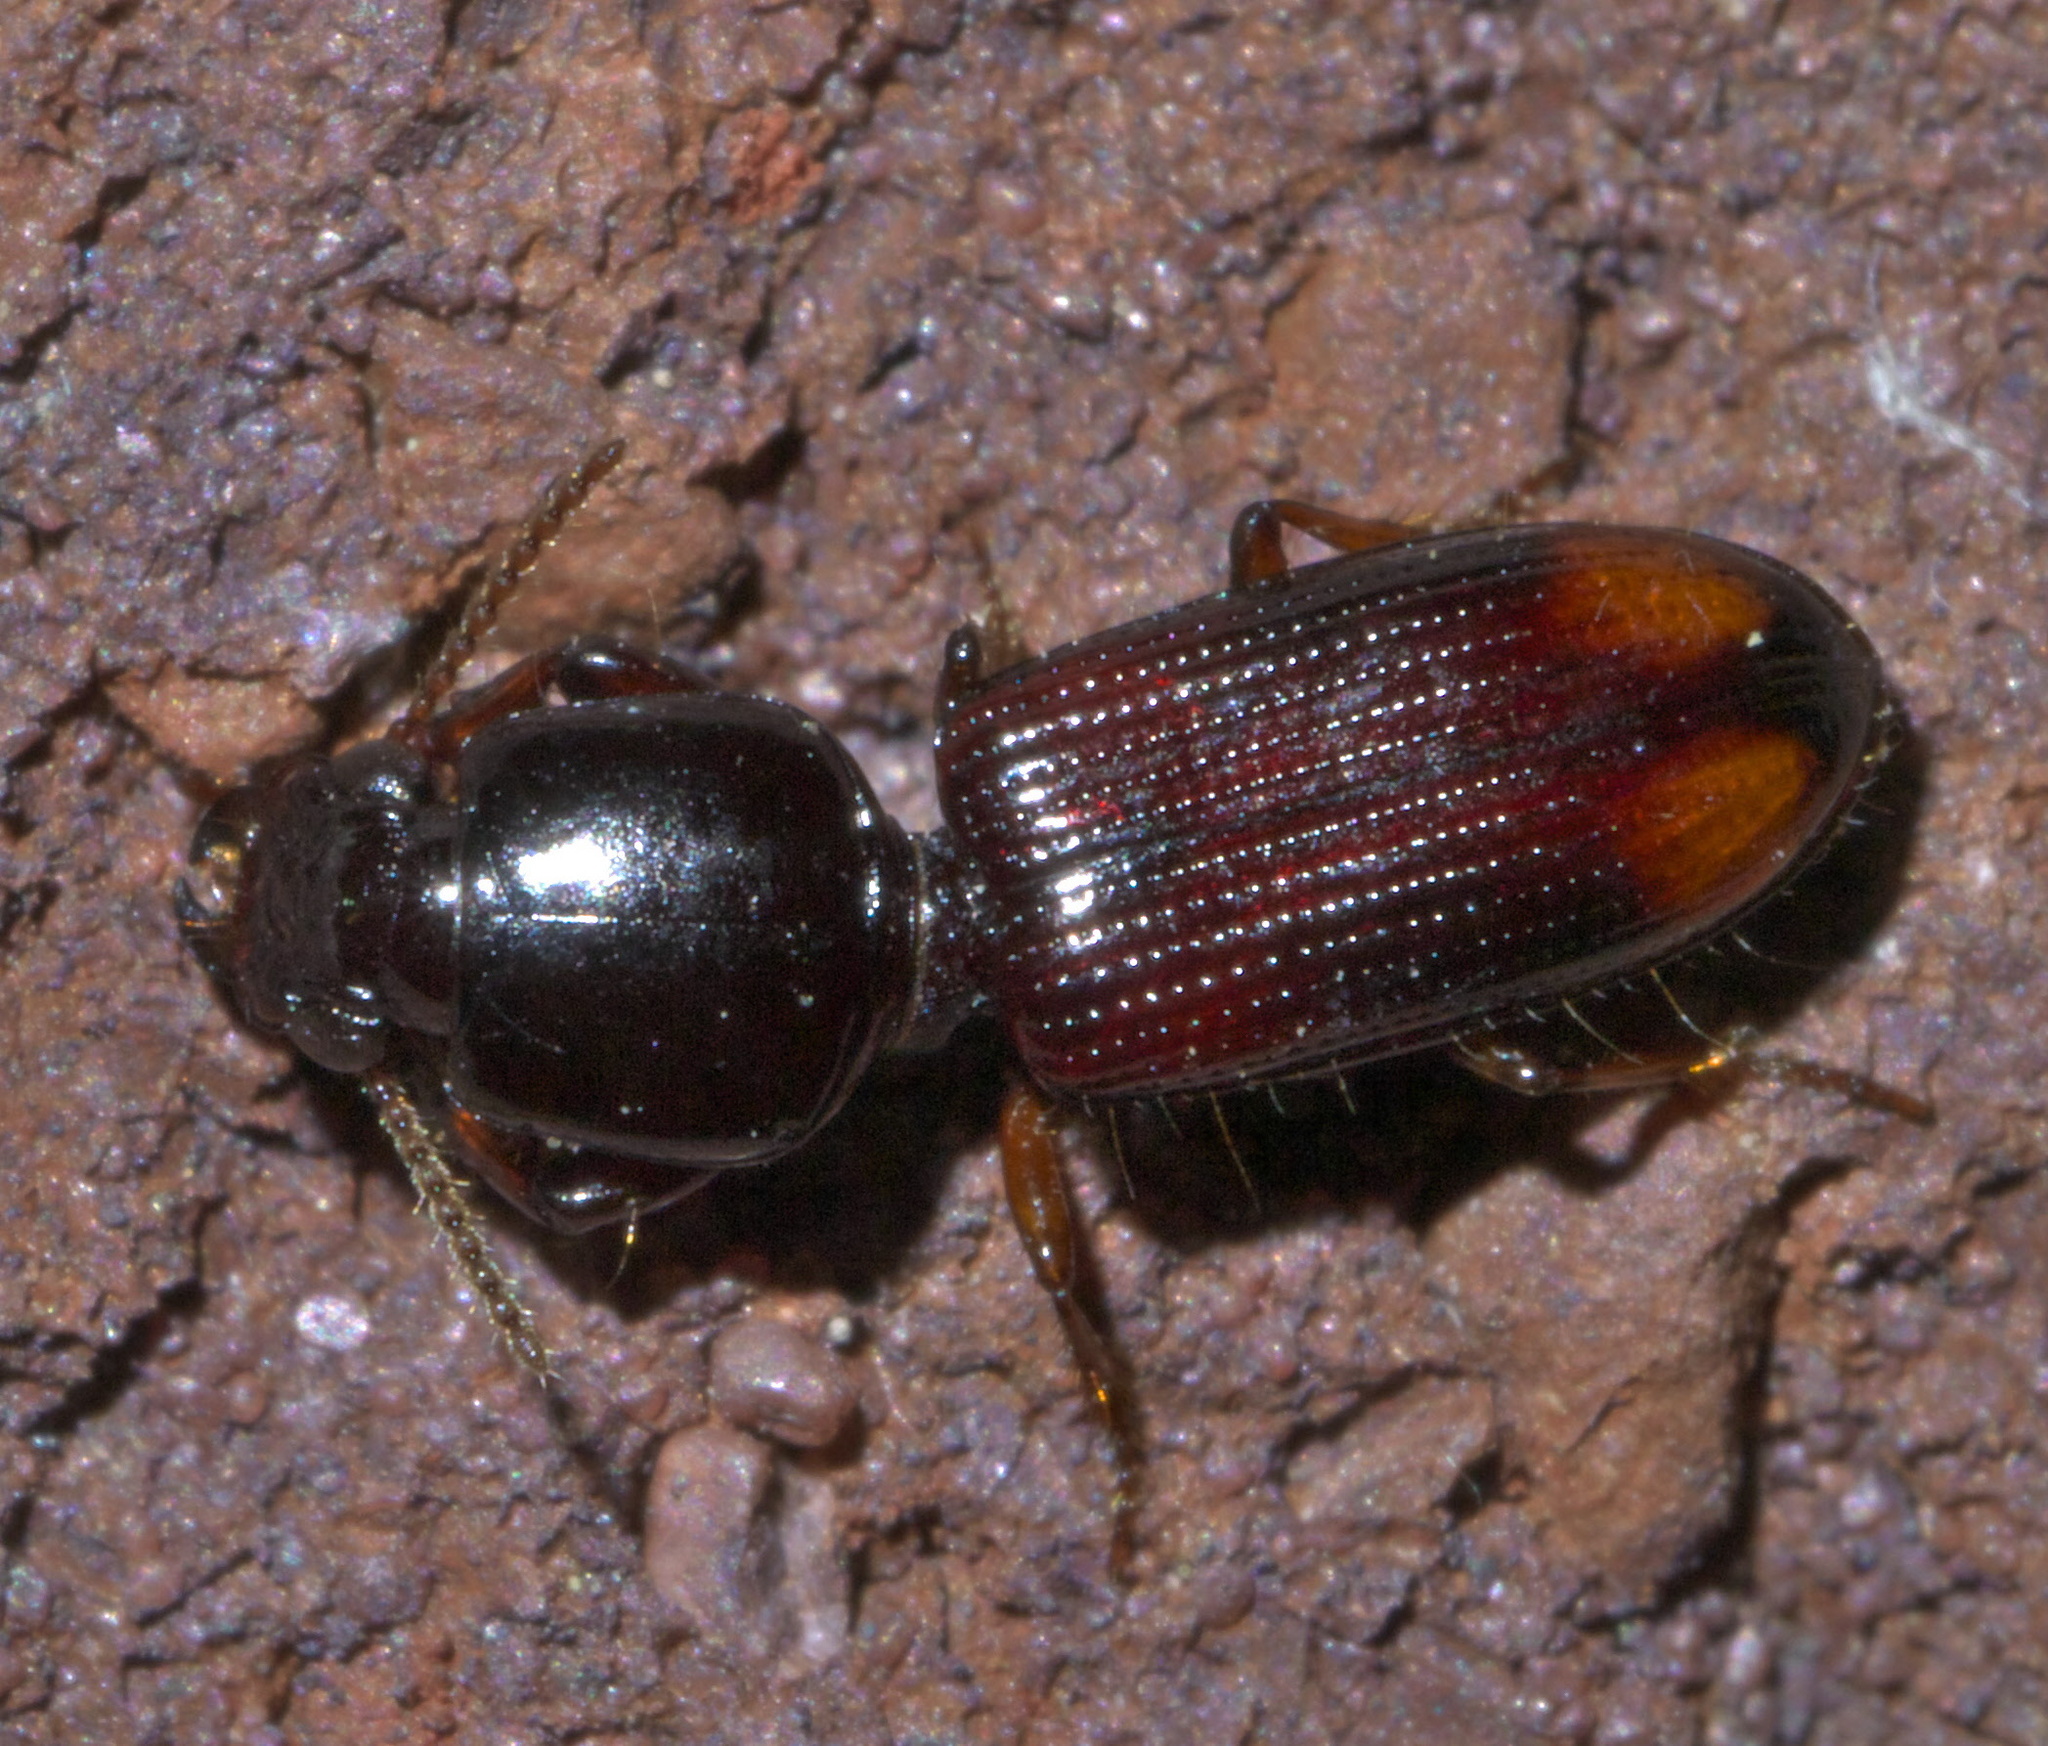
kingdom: Animalia
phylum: Arthropoda
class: Insecta
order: Coleoptera
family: Carabidae
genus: Clivina
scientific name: Clivina bipustulata
